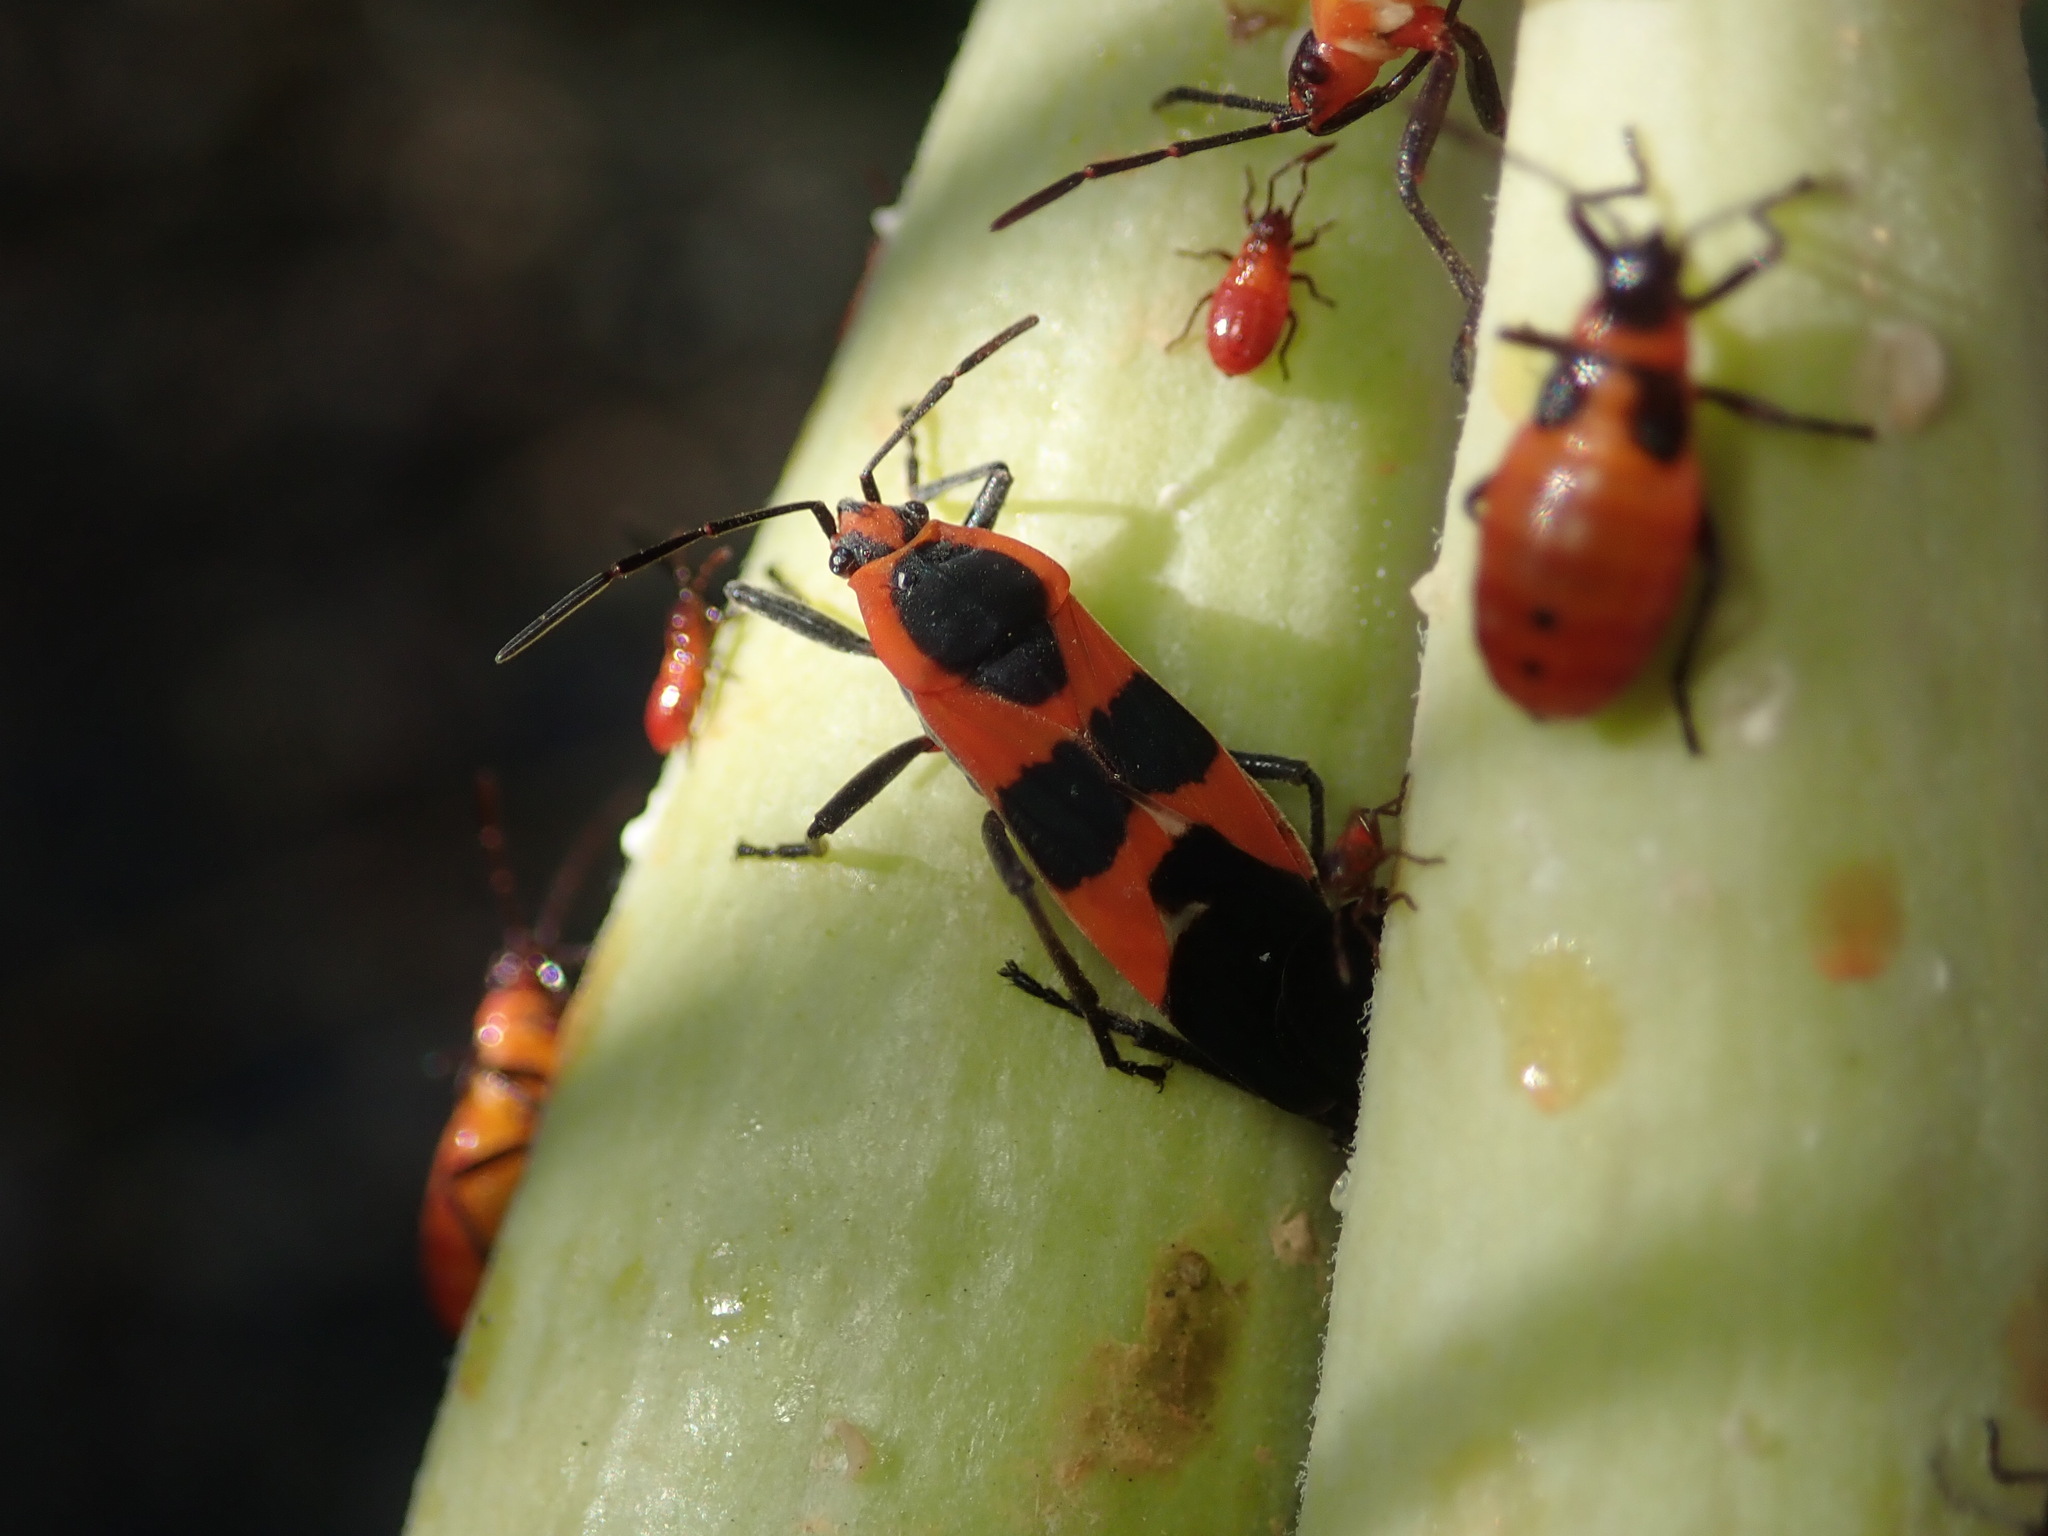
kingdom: Animalia
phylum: Arthropoda
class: Insecta
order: Hemiptera
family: Lygaeidae
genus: Oncopeltus
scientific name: Oncopeltus fasciatus
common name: Large milkweed bug
